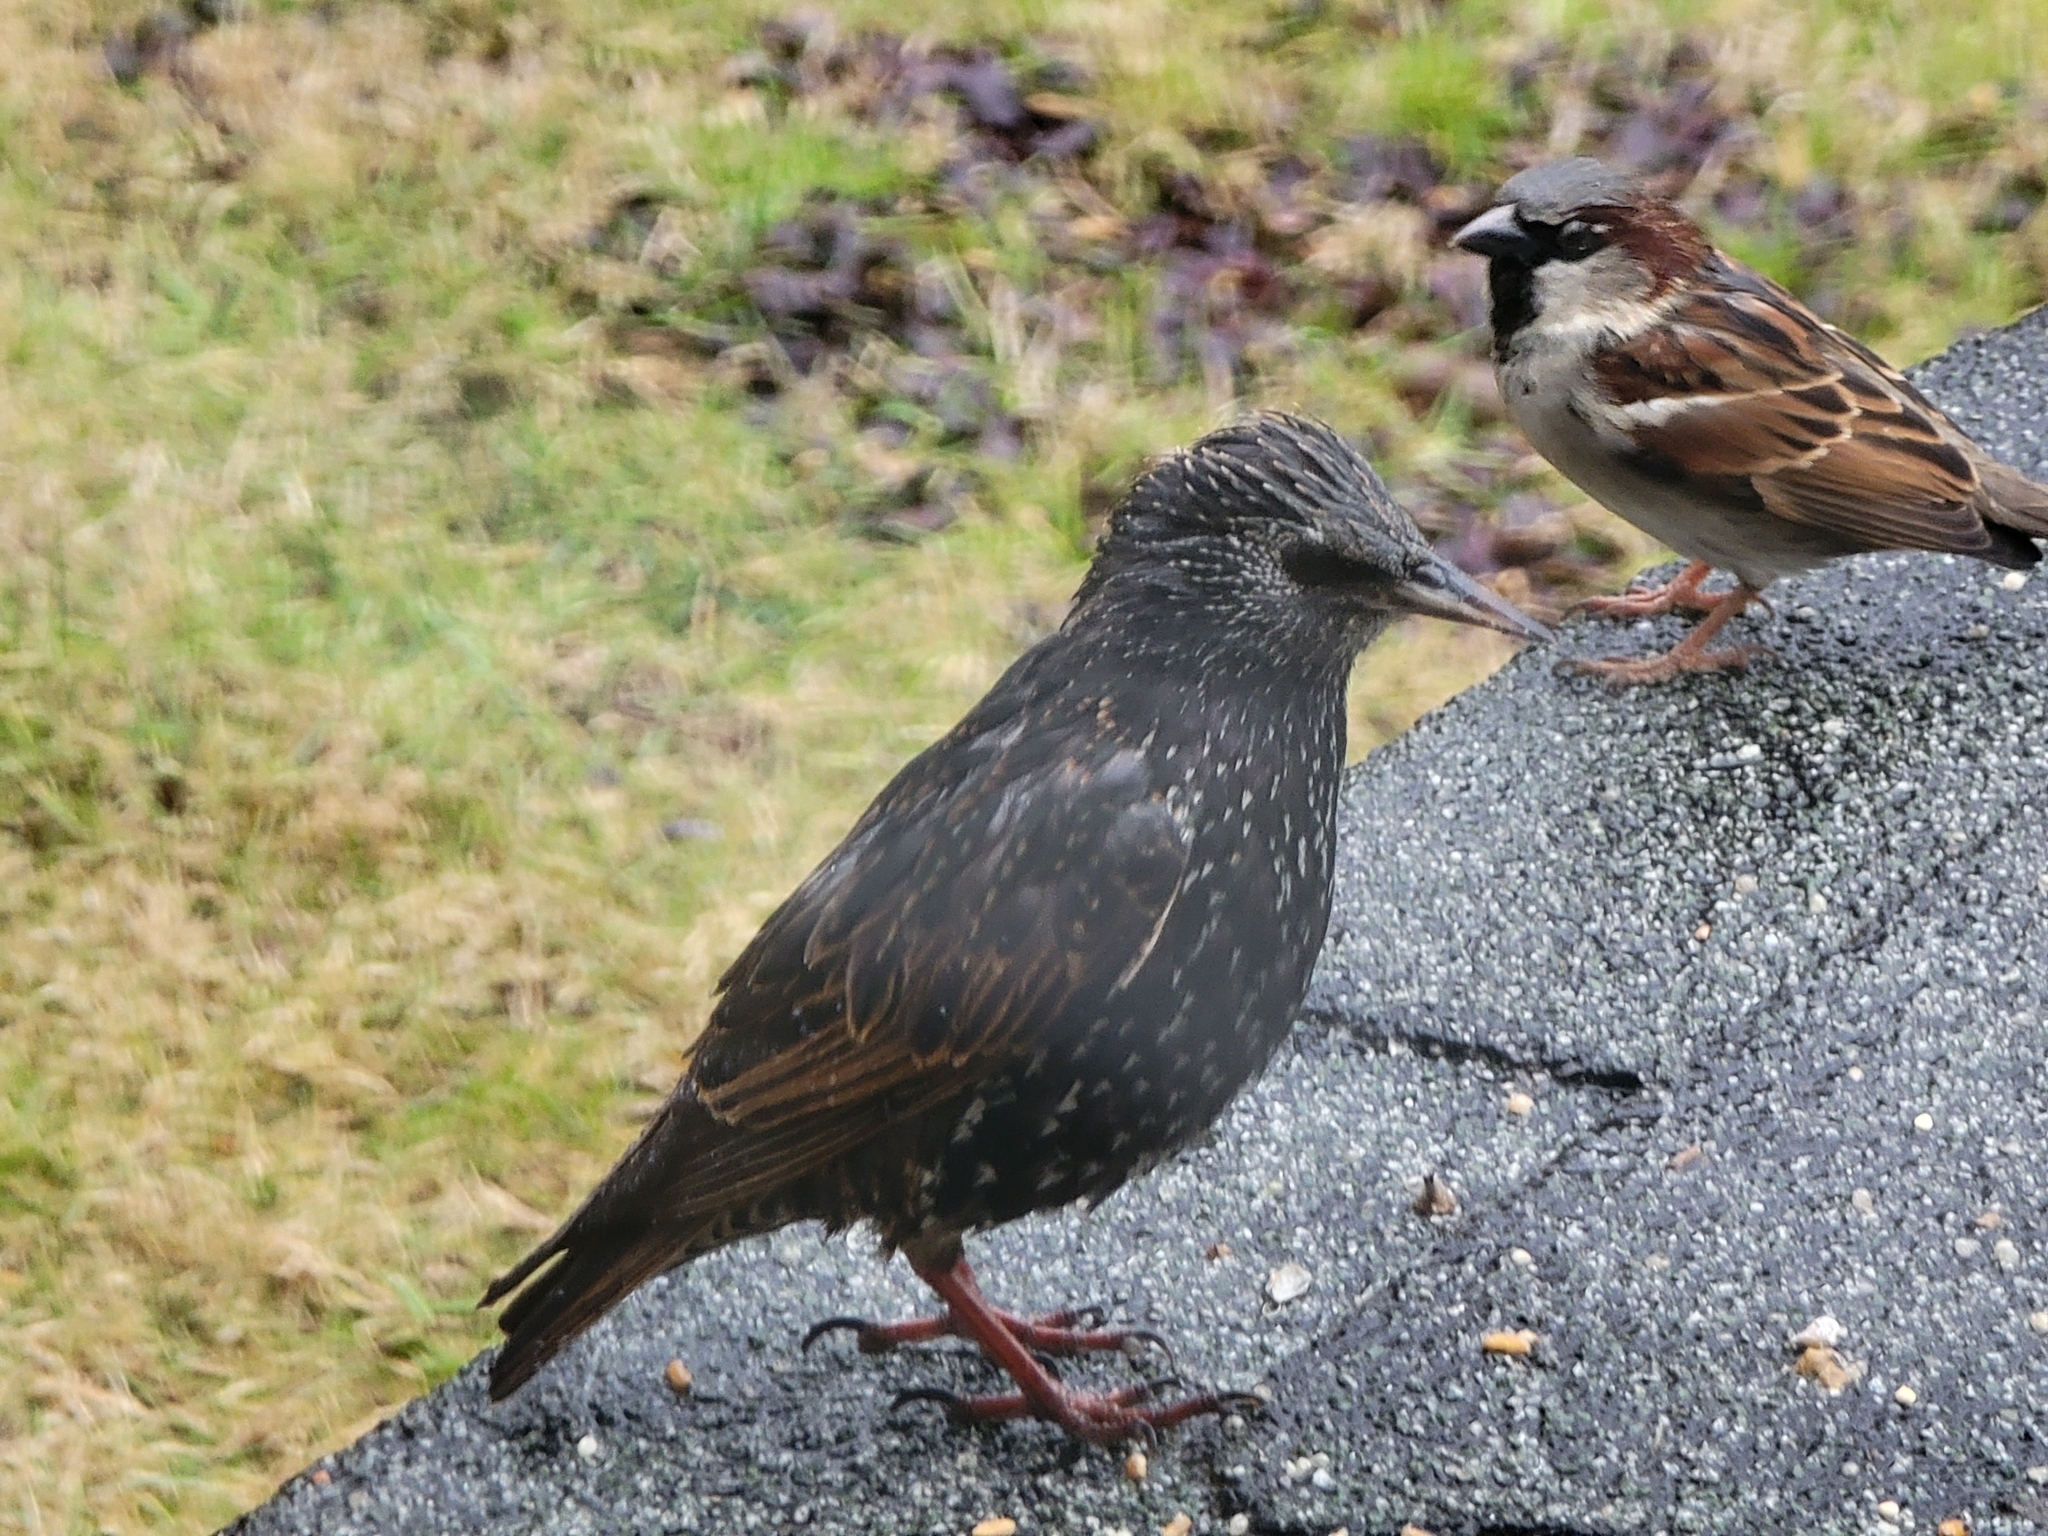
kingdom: Animalia
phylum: Chordata
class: Aves
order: Passeriformes
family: Sturnidae
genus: Sturnus
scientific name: Sturnus vulgaris
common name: Common starling
